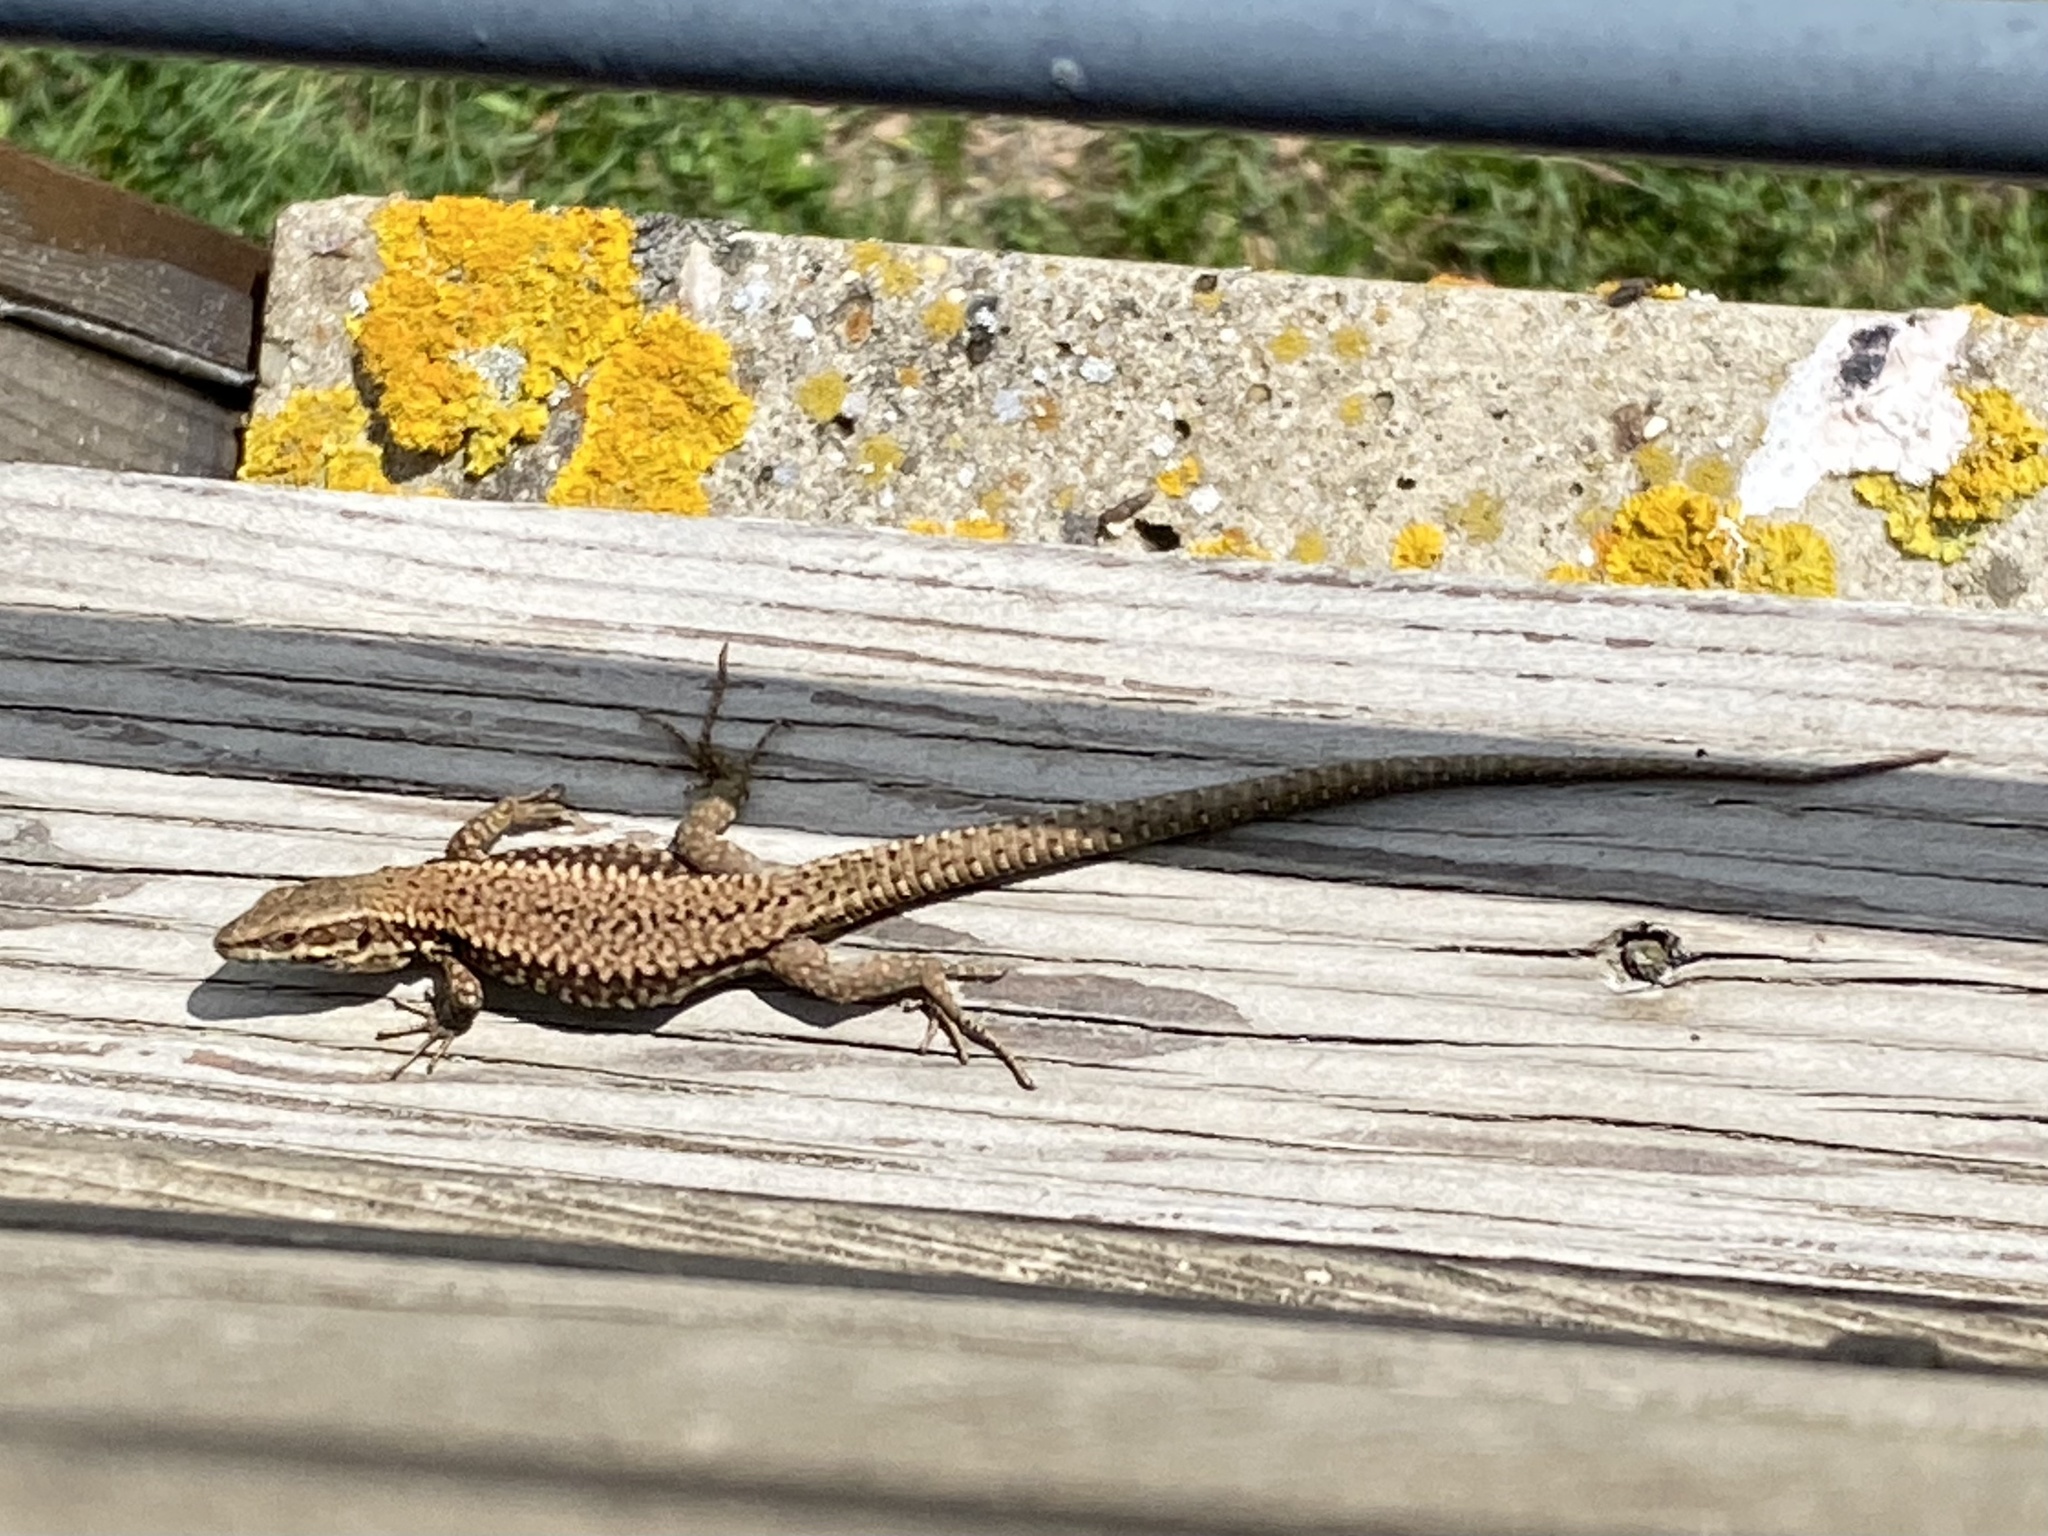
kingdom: Animalia
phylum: Chordata
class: Squamata
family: Lacertidae
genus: Podarcis
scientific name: Podarcis muralis
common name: Common wall lizard
